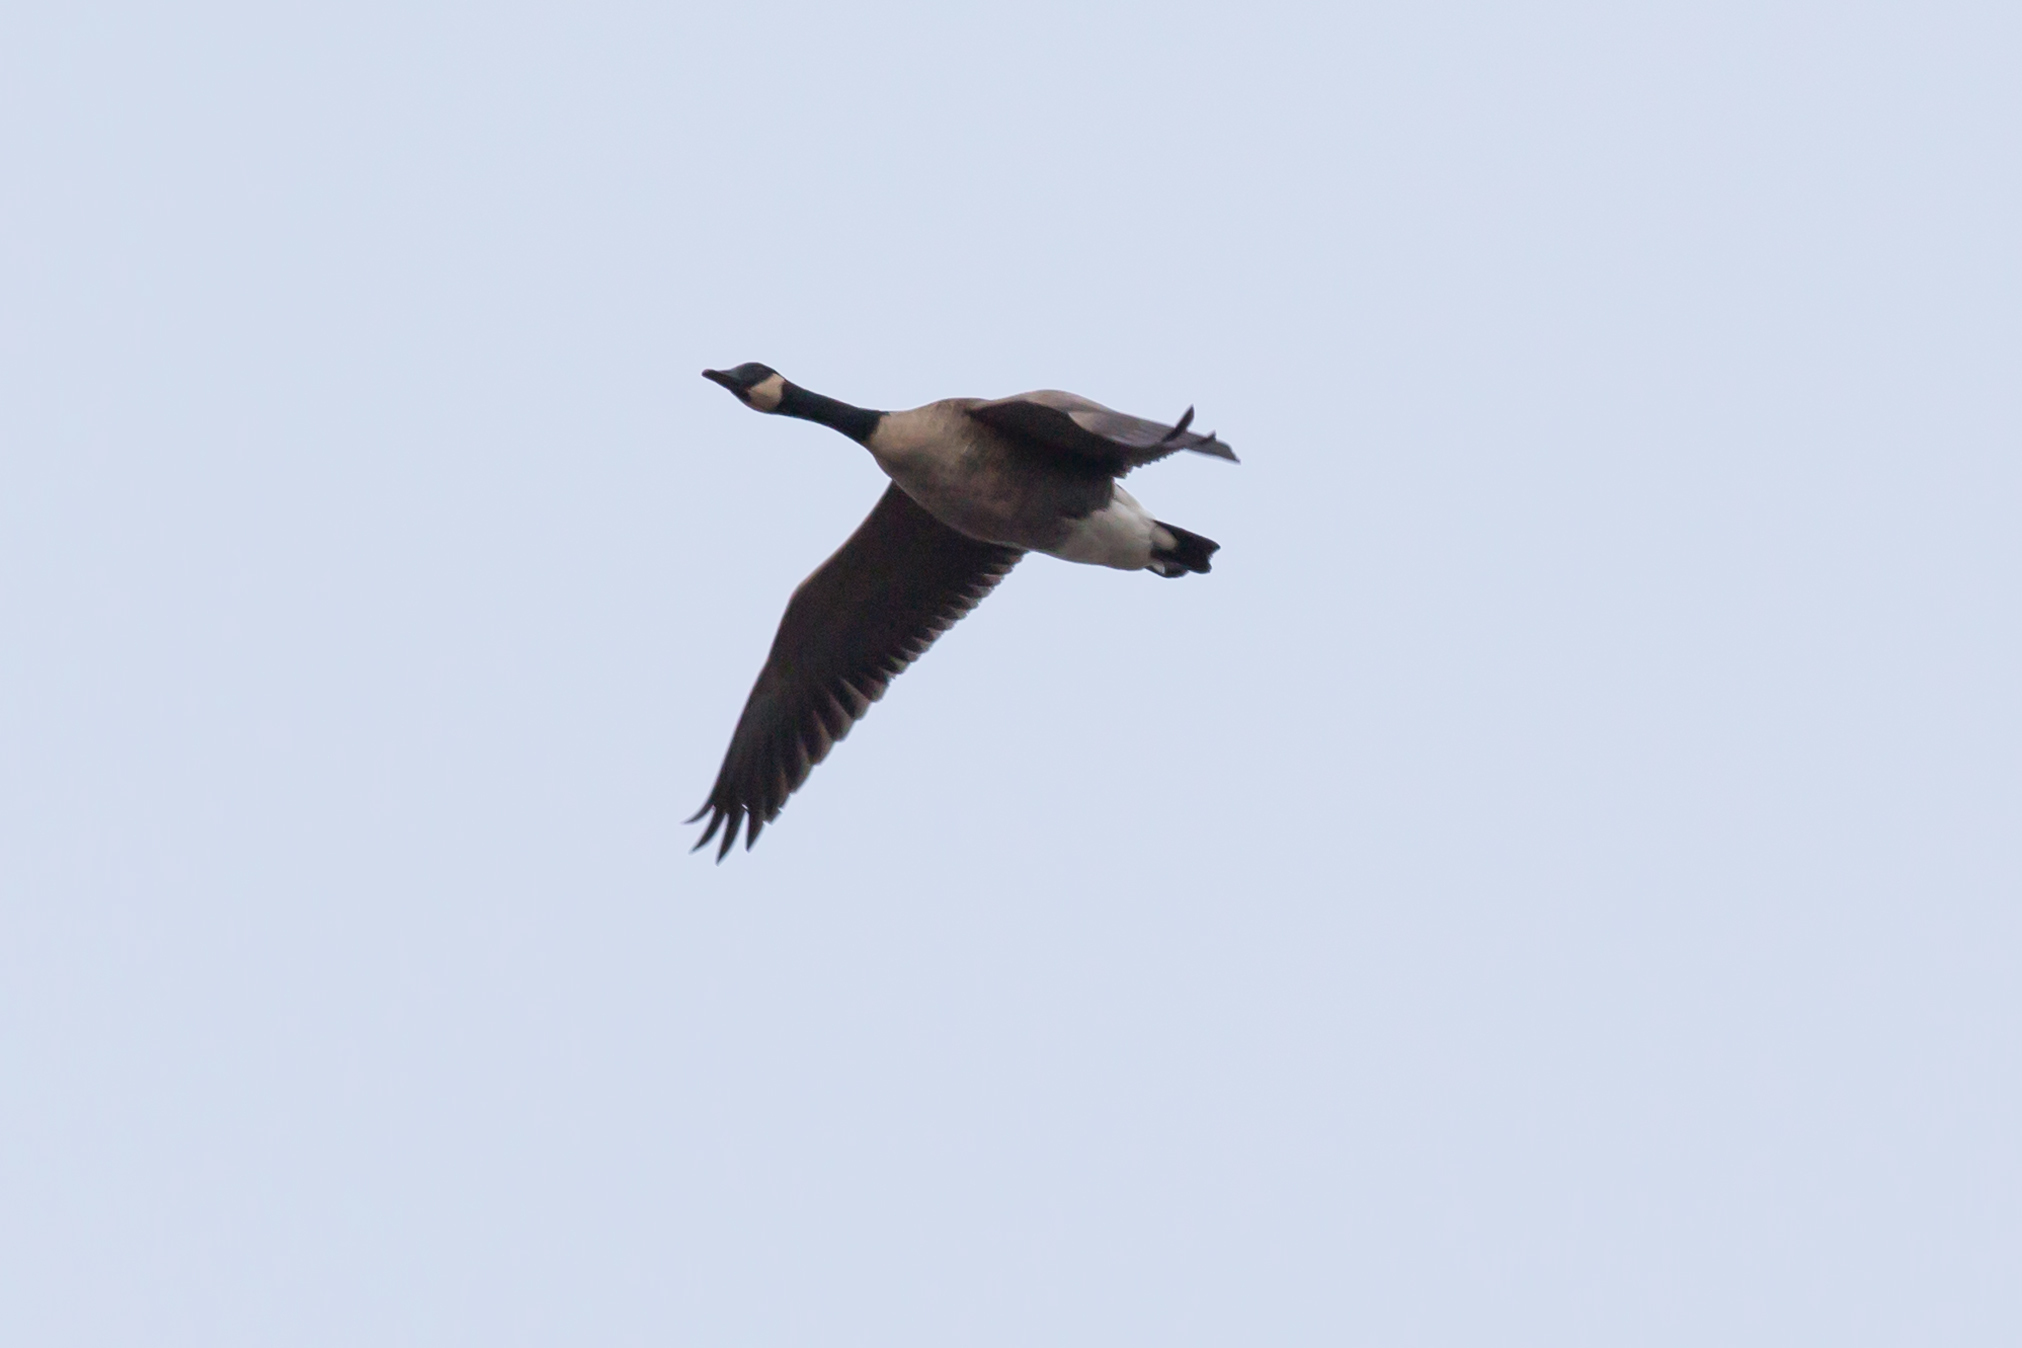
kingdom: Animalia
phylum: Chordata
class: Aves
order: Anseriformes
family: Anatidae
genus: Branta
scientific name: Branta canadensis
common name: Canada goose
